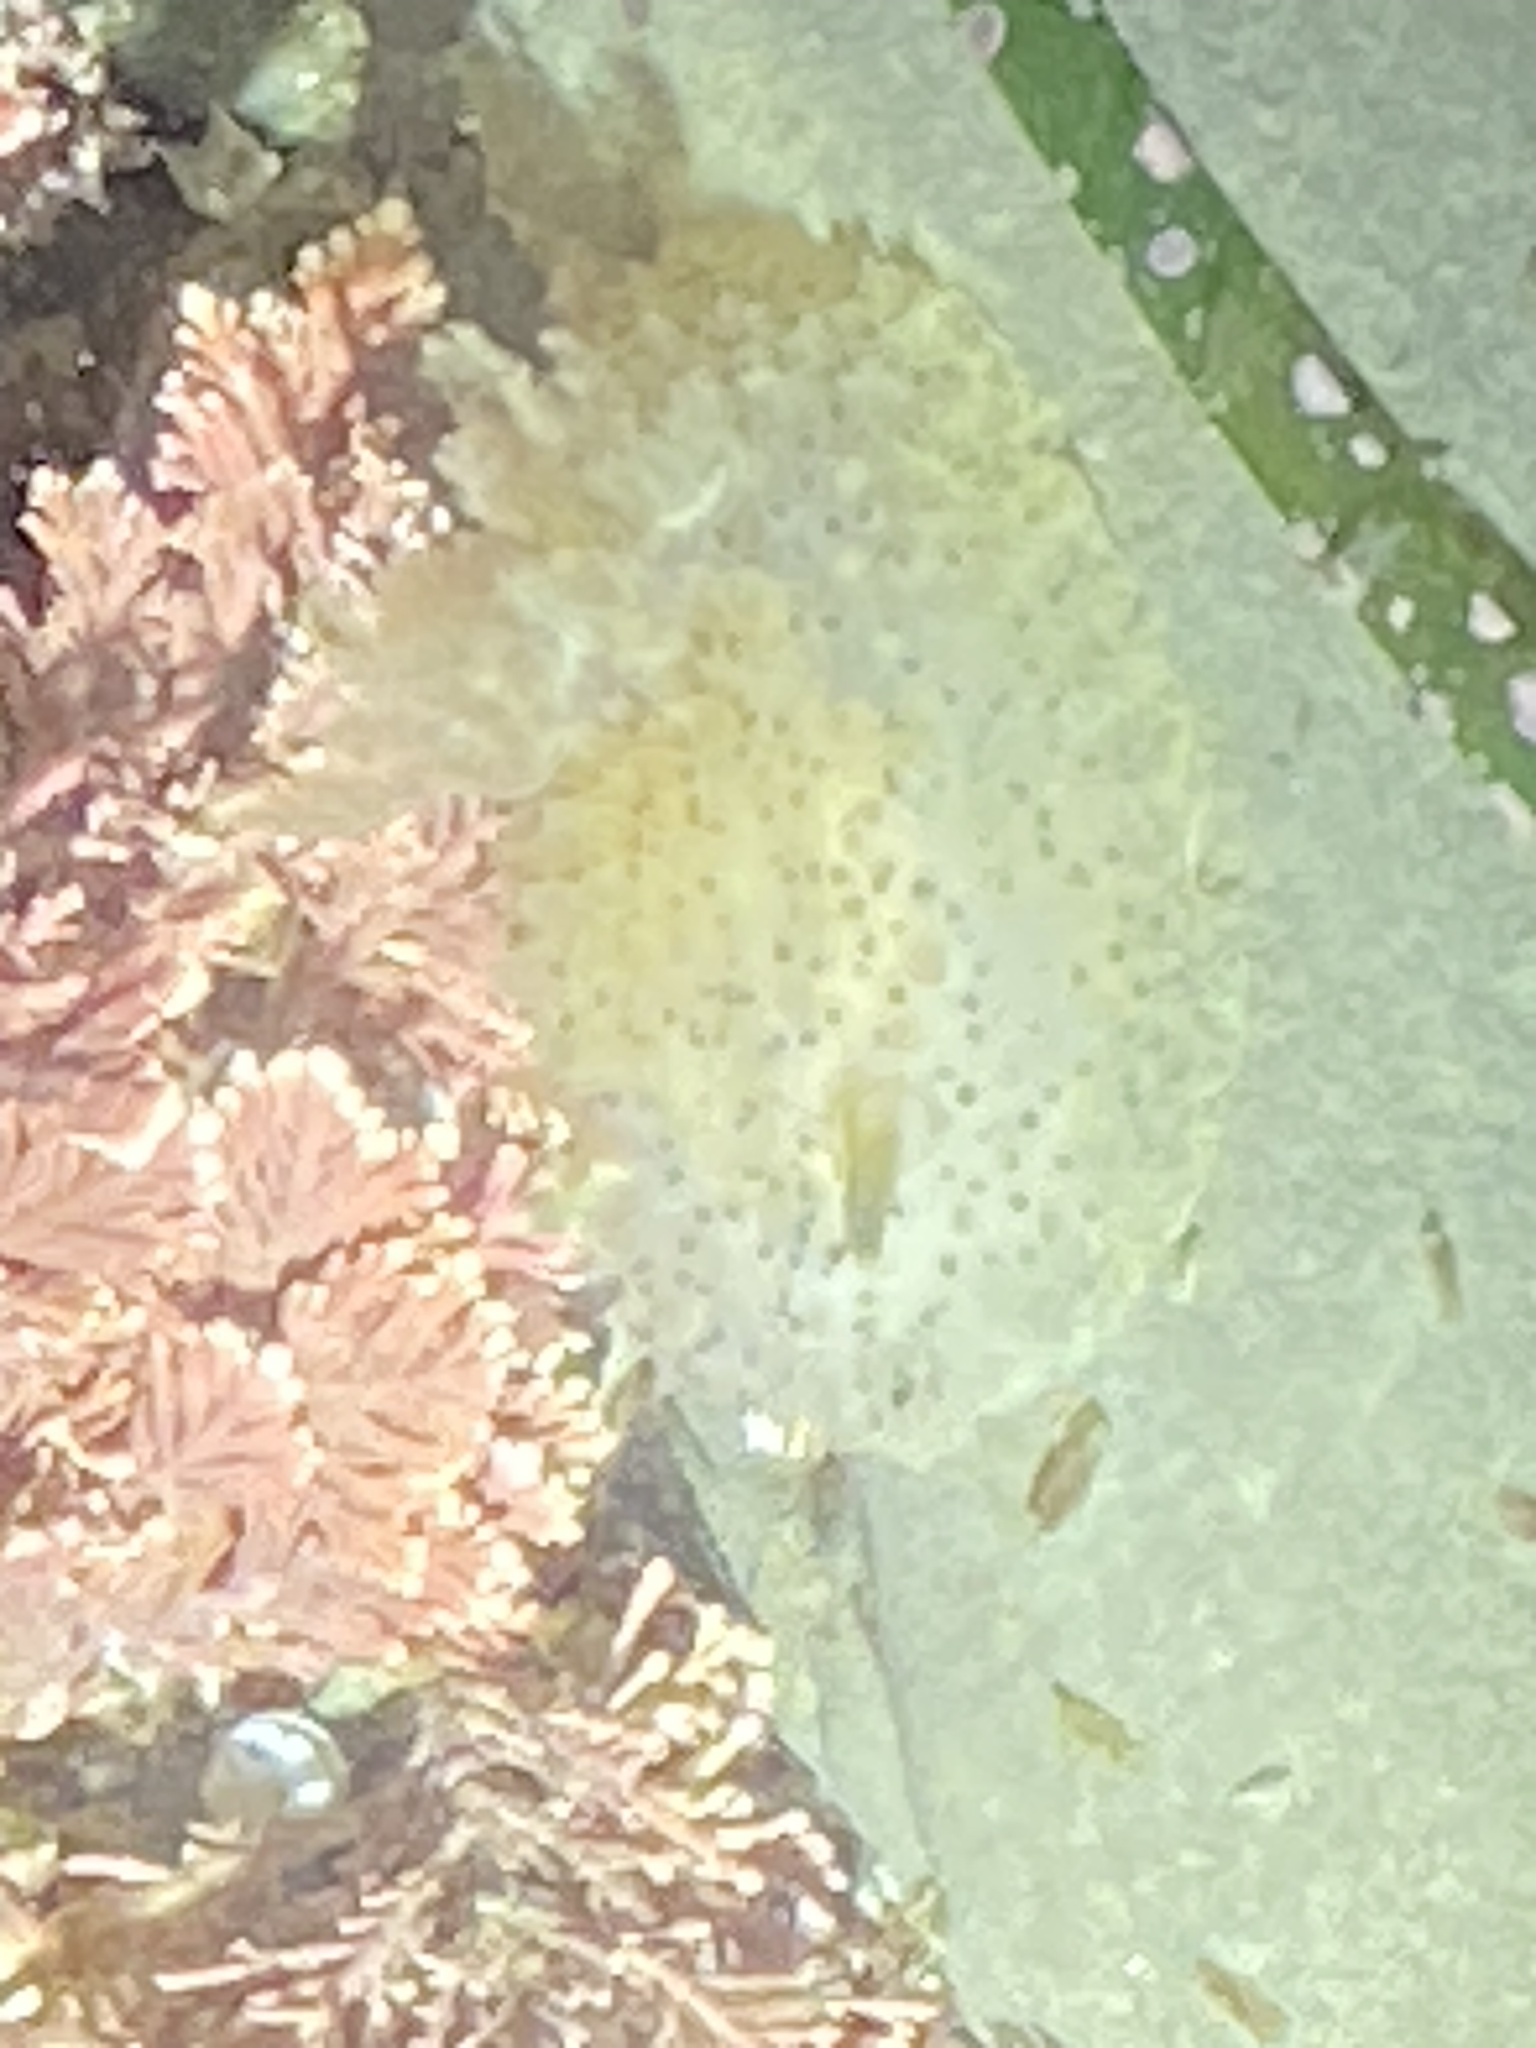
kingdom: Animalia
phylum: Mollusca
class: Gastropoda
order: Nudibranchia
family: Onchidorididae
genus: Acanthodoris
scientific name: Acanthodoris rhodoceras
